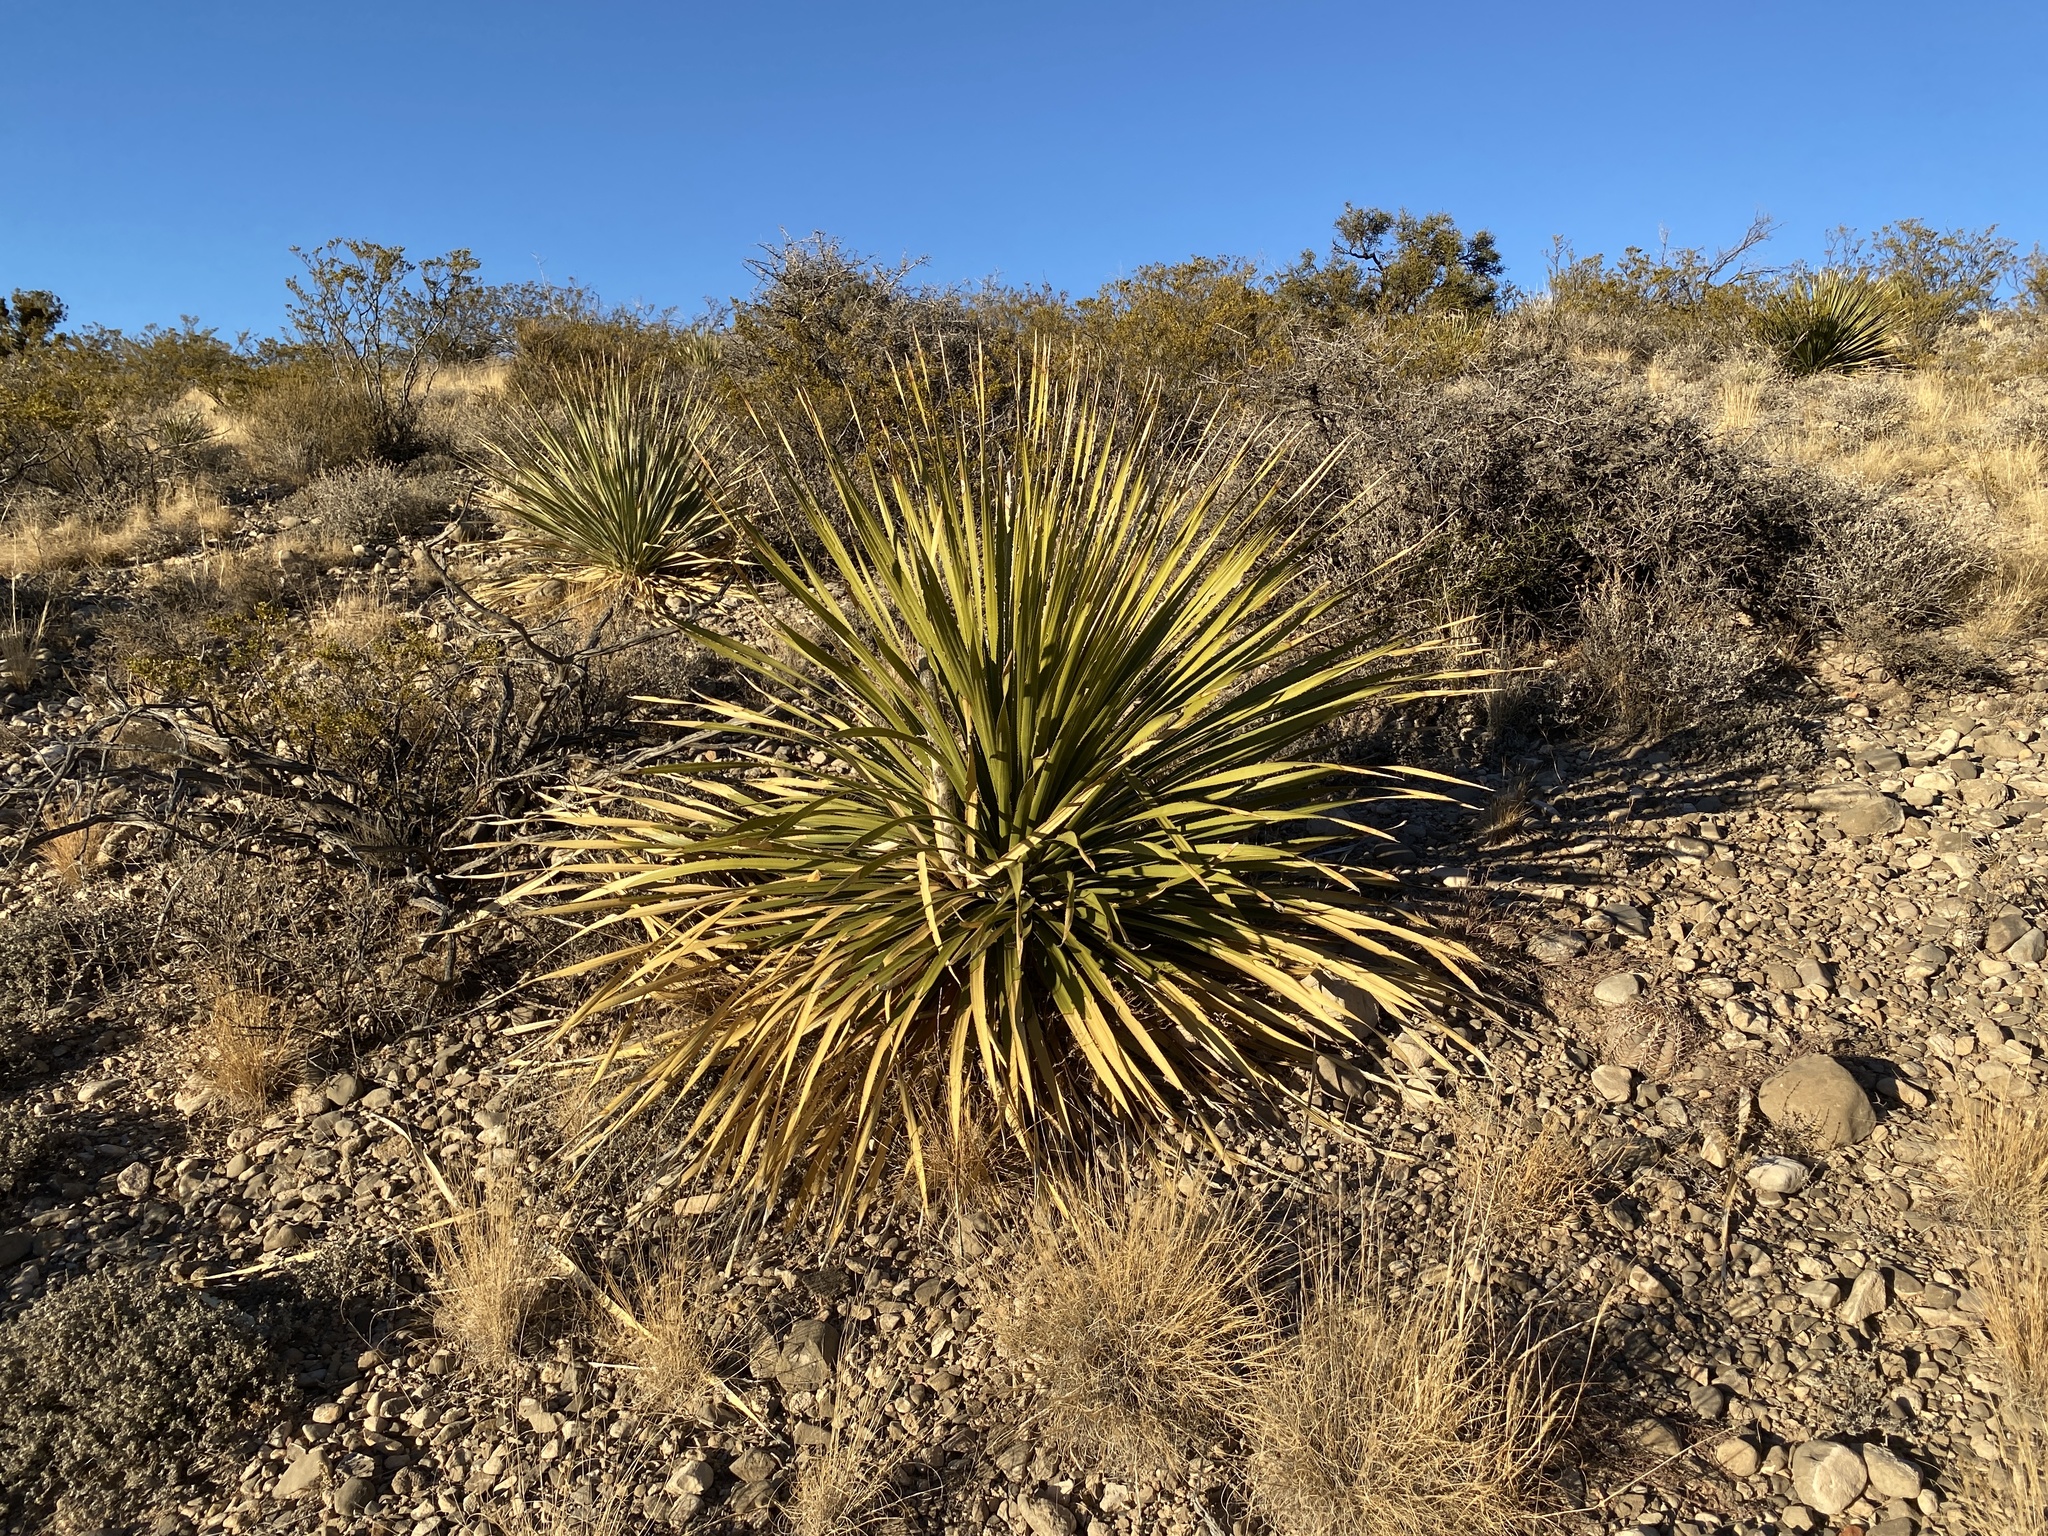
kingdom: Plantae
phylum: Tracheophyta
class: Liliopsida
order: Asparagales
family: Asparagaceae
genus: Dasylirion
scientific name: Dasylirion wheeleri
